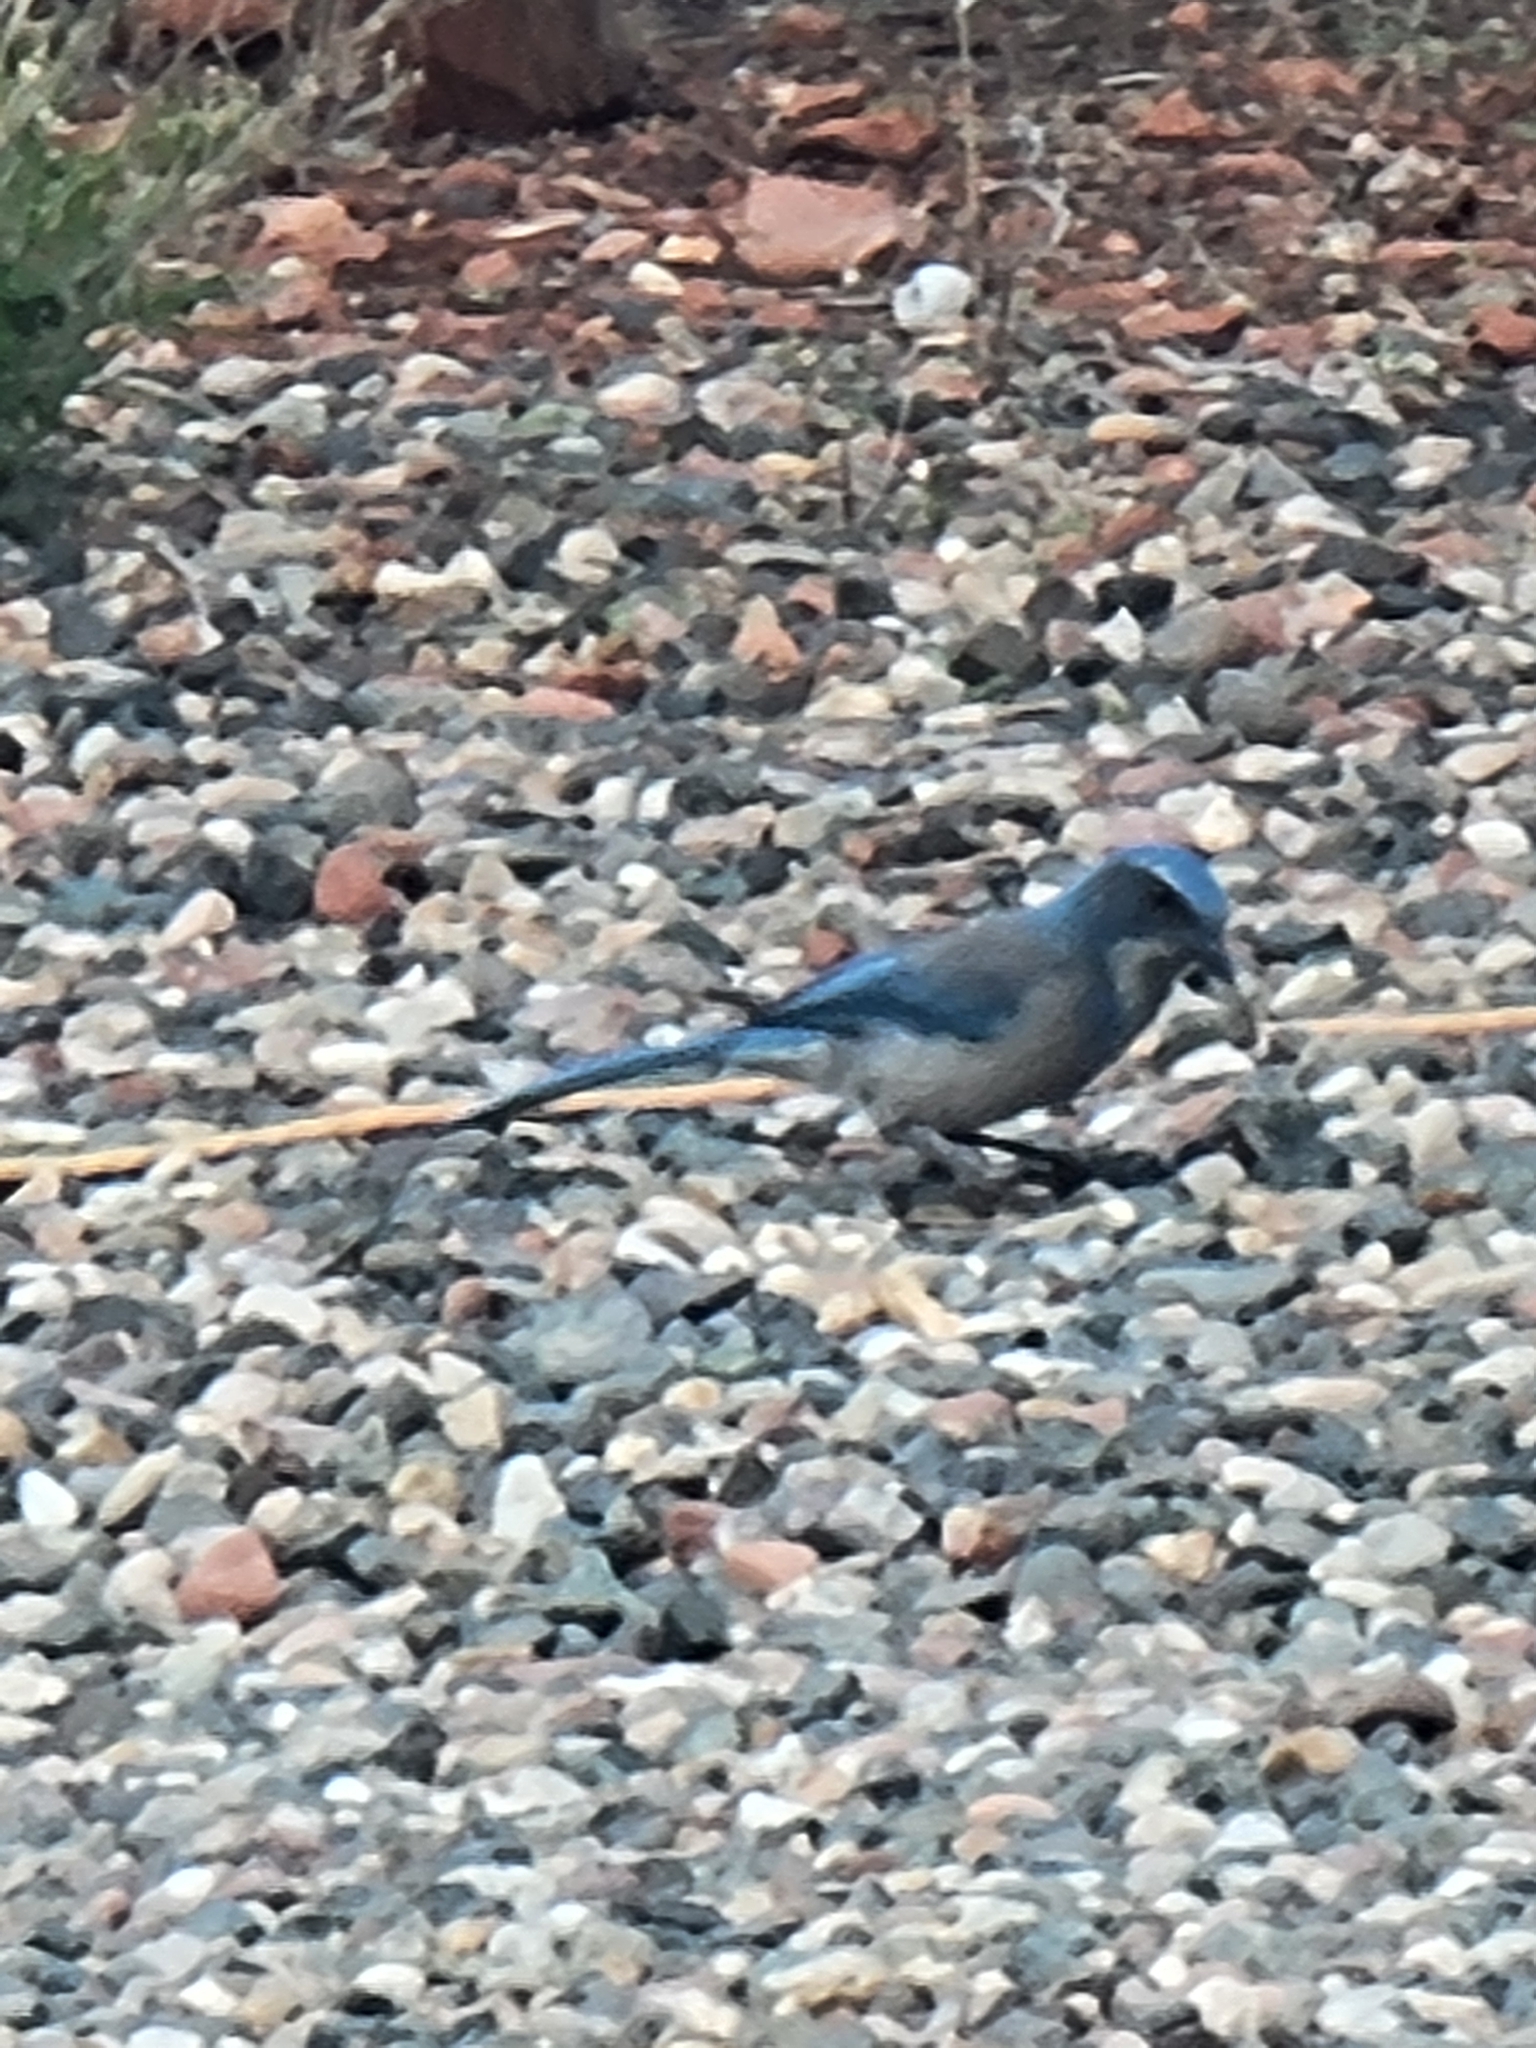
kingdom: Animalia
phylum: Chordata
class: Aves
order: Passeriformes
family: Corvidae
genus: Aphelocoma
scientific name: Aphelocoma woodhouseii
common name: Woodhouse's scrub-jay
